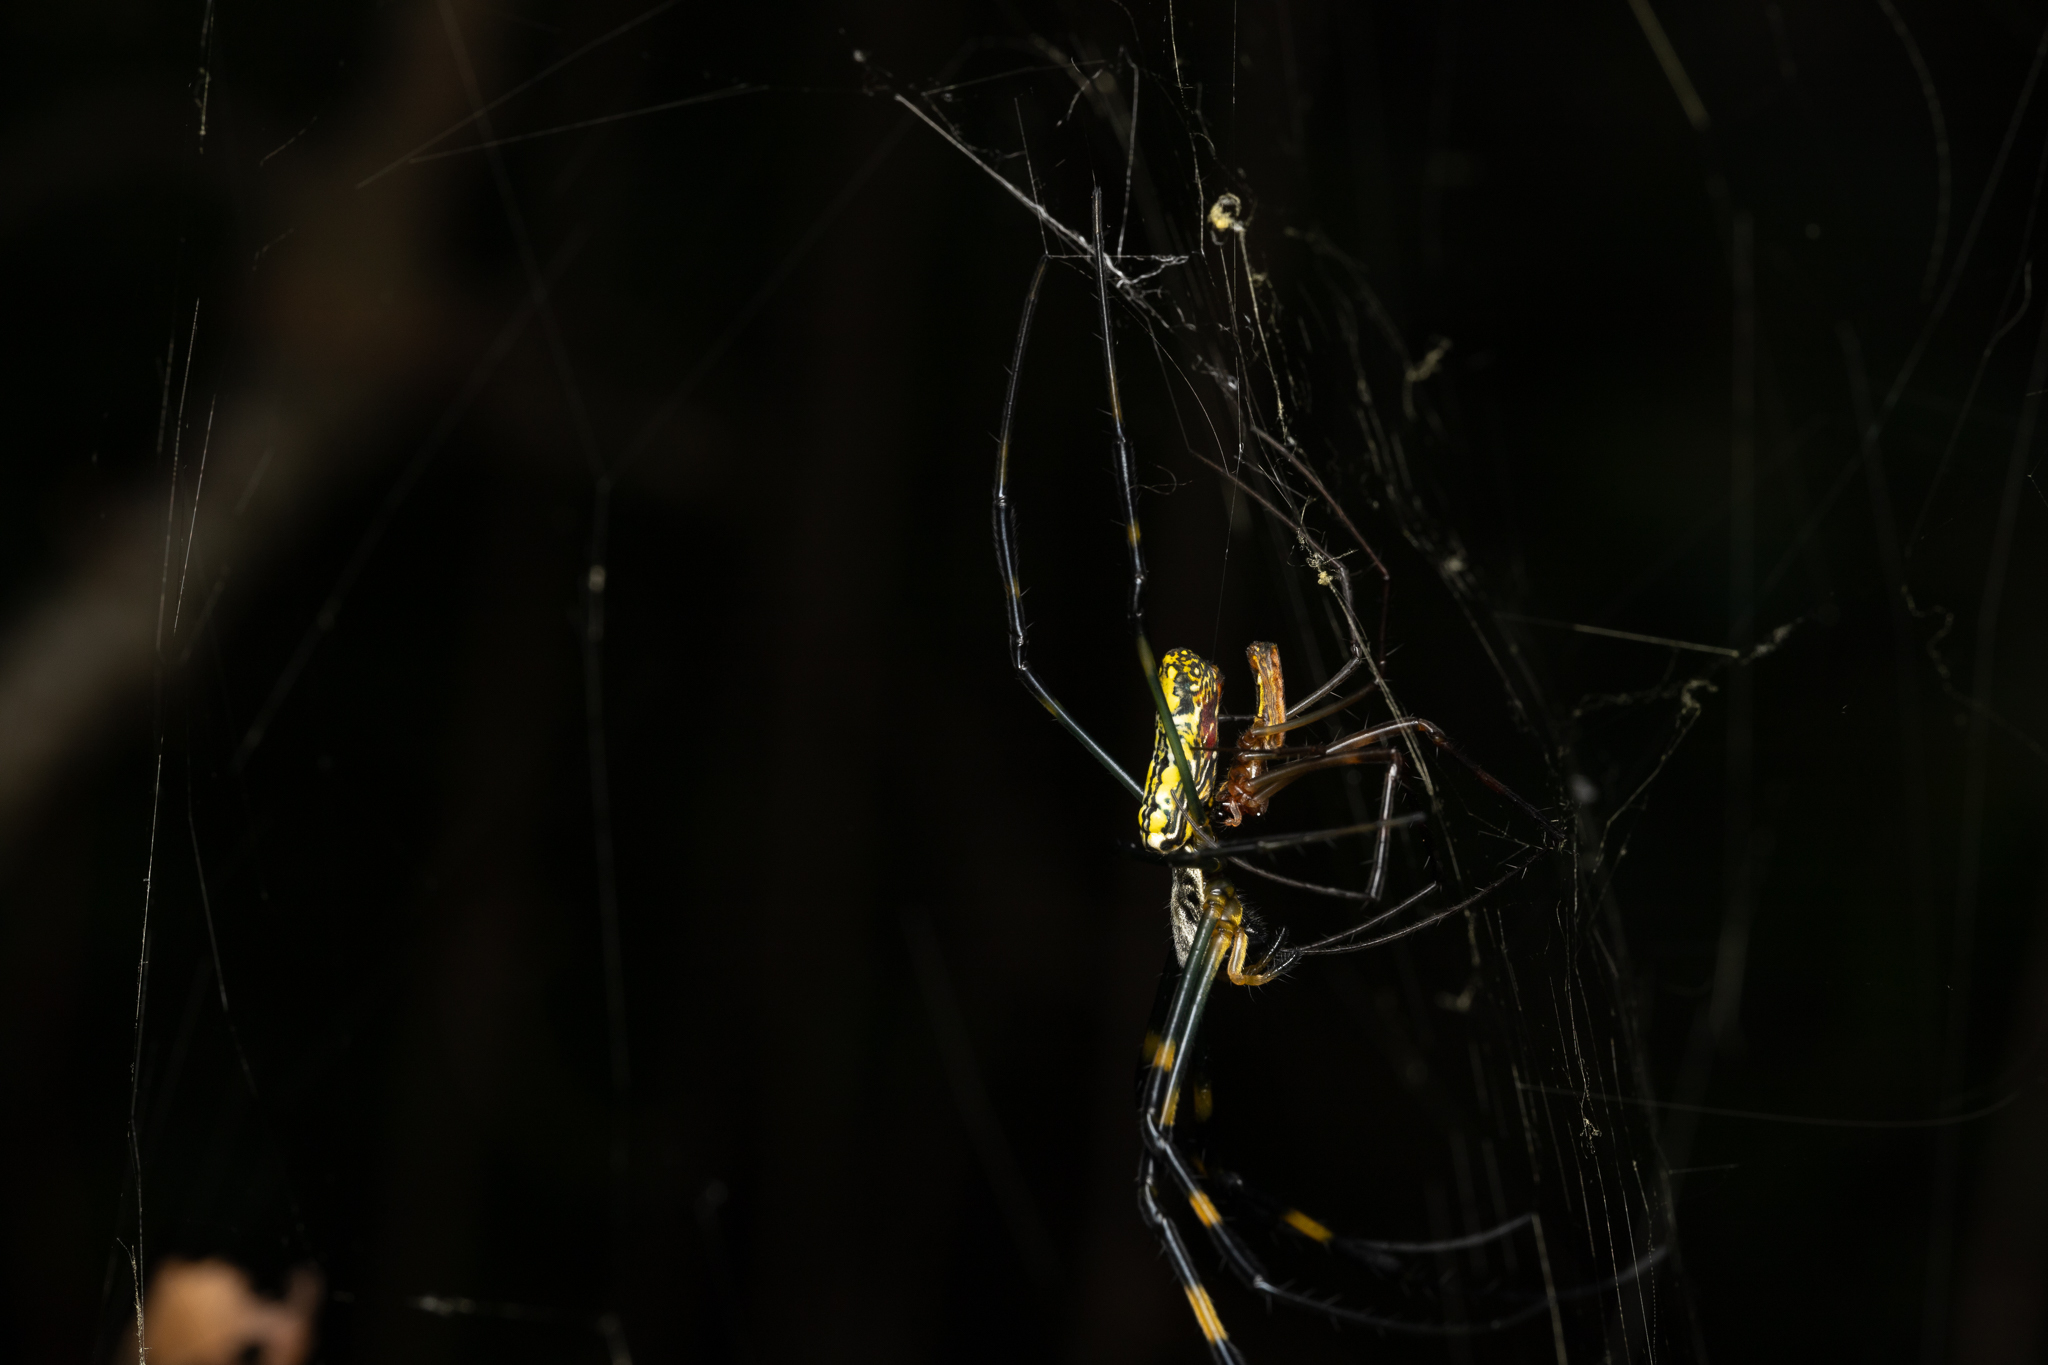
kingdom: Animalia
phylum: Arthropoda
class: Arachnida
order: Araneae
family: Araneidae
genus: Trichonephila
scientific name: Trichonephila clavata
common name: Jorō spider
